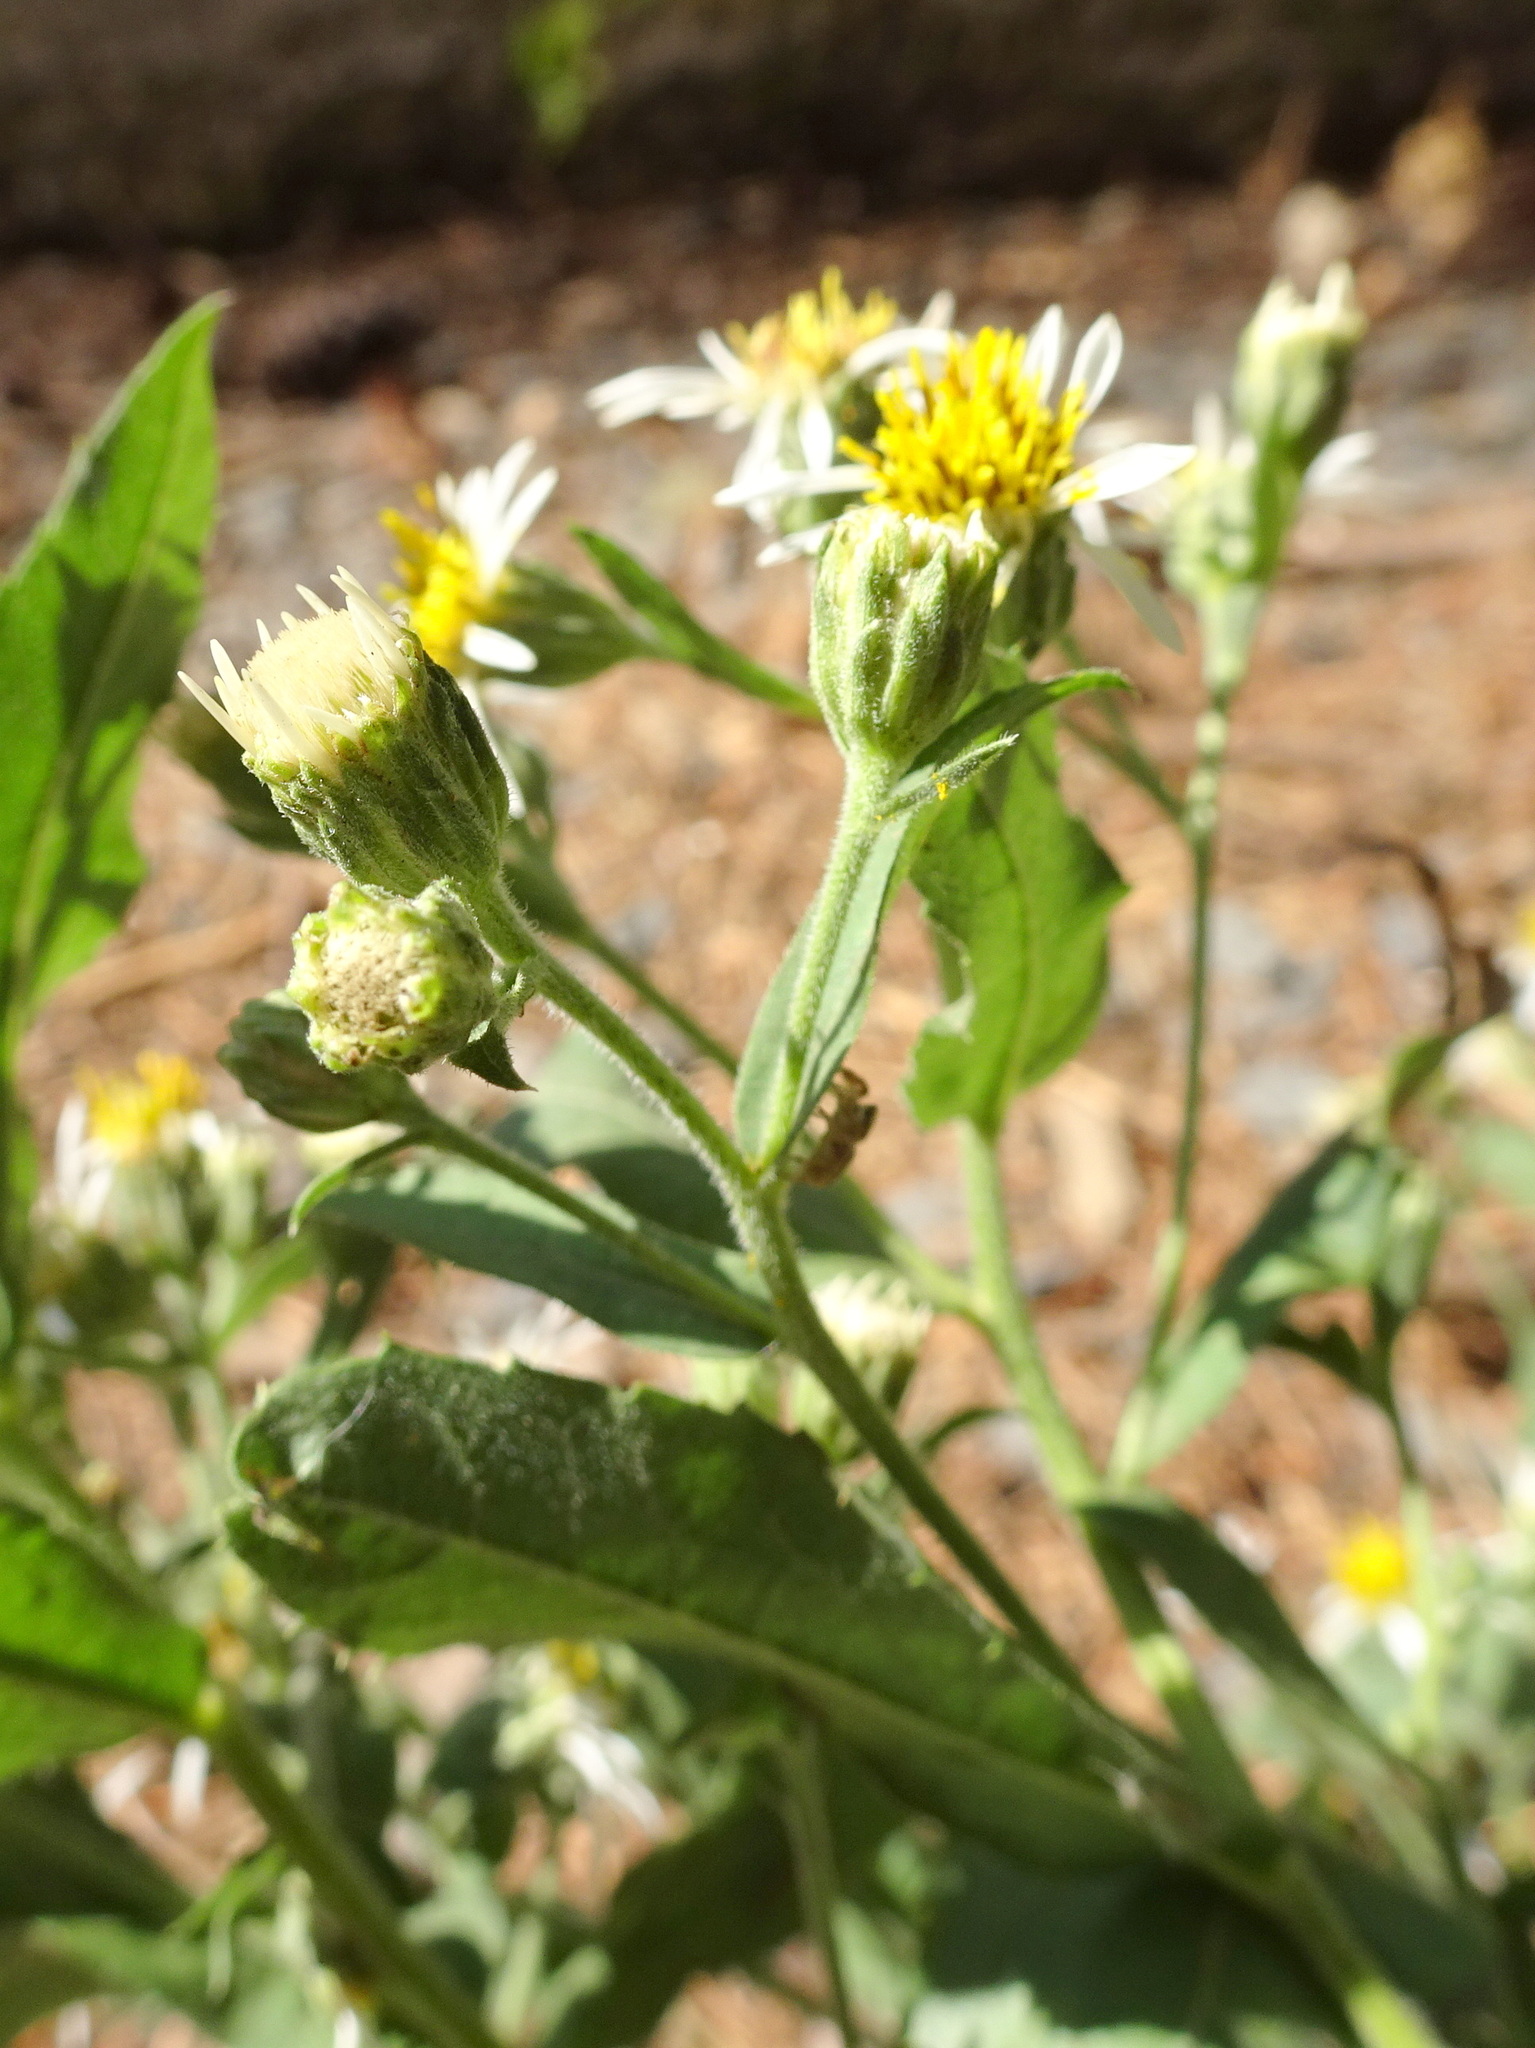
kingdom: Plantae
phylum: Tracheophyta
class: Magnoliopsida
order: Asterales
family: Asteraceae
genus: Eurybia
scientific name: Eurybia radulina
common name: Rough-leaved aster
